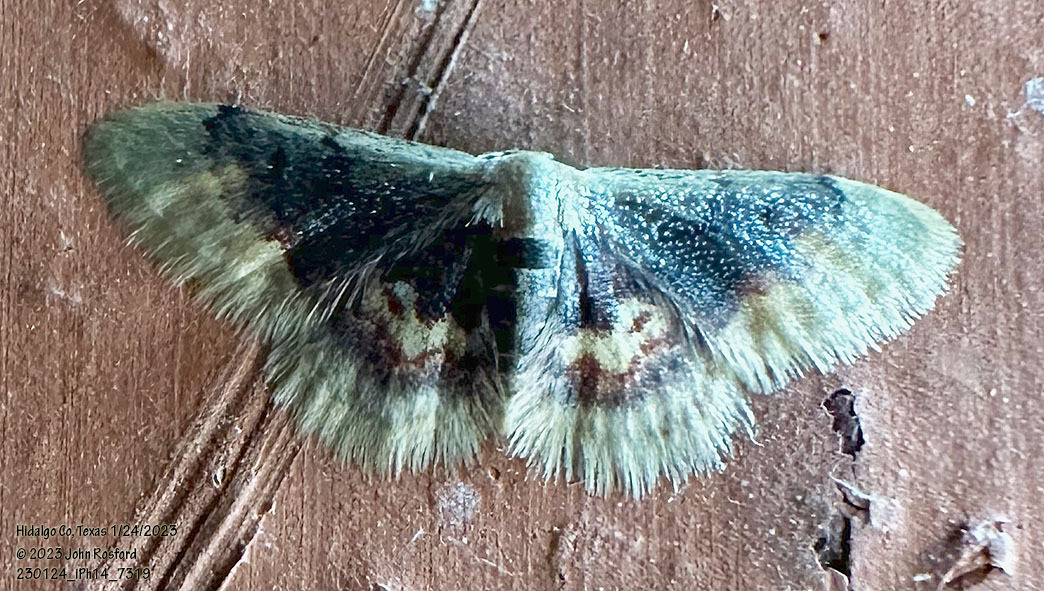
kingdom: Animalia
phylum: Arthropoda
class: Insecta
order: Lepidoptera
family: Geometridae
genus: Idaea
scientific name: Idaea scintillularia
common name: Diminutive wave
